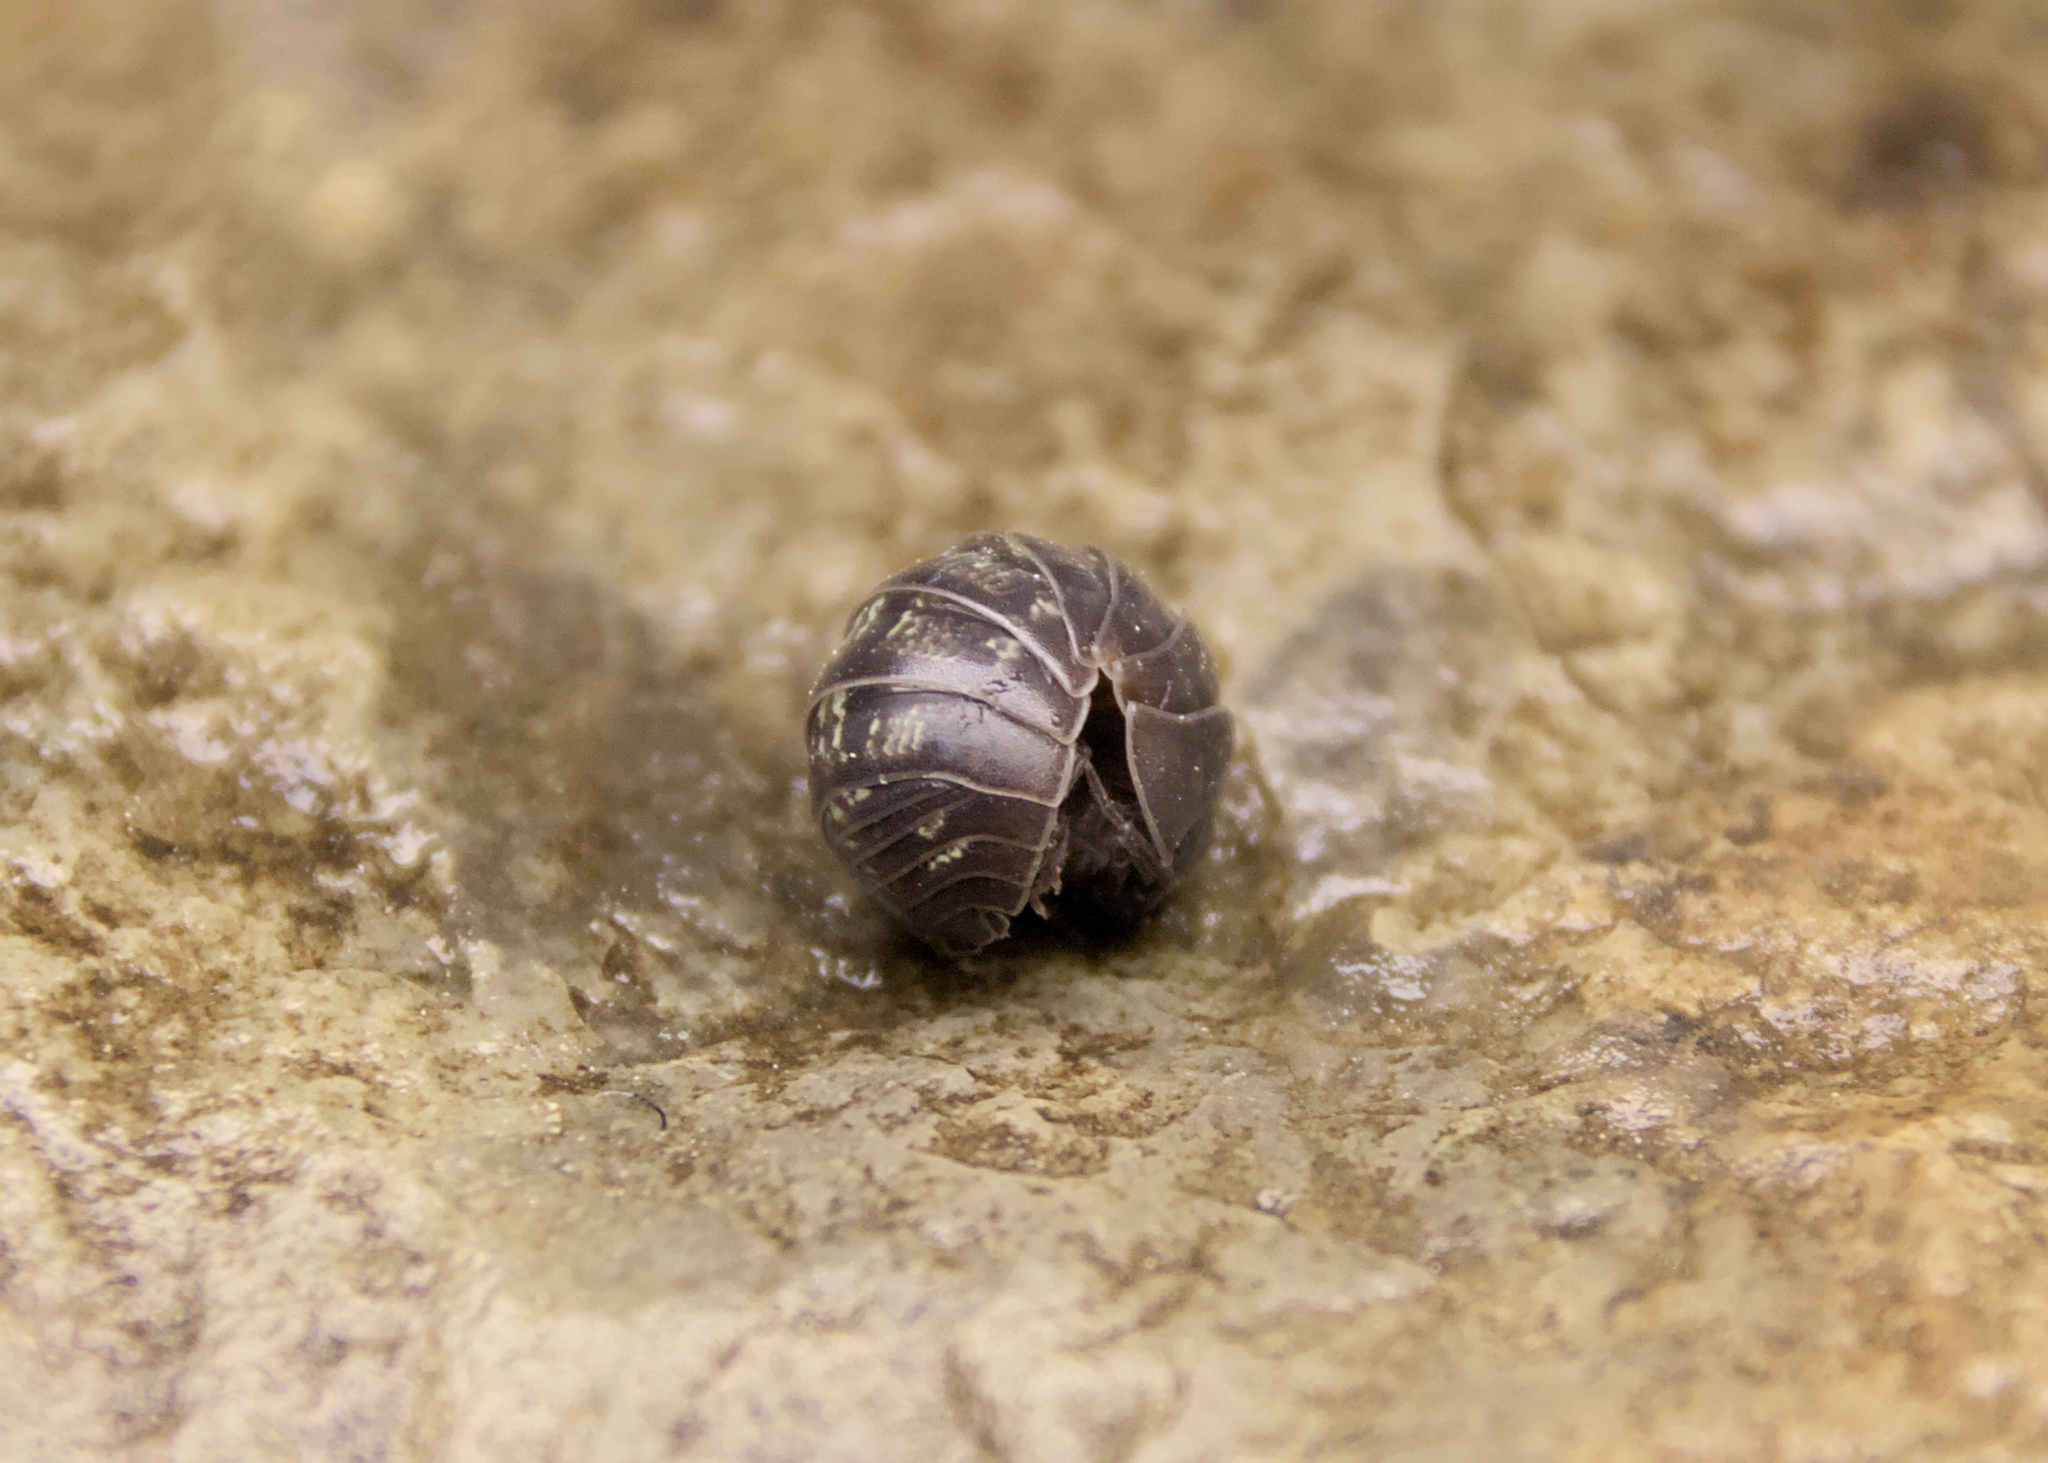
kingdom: Animalia
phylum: Arthropoda
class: Malacostraca
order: Isopoda
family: Armadillidiidae
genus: Armadillidium
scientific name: Armadillidium vulgare
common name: Common pill woodlouse
